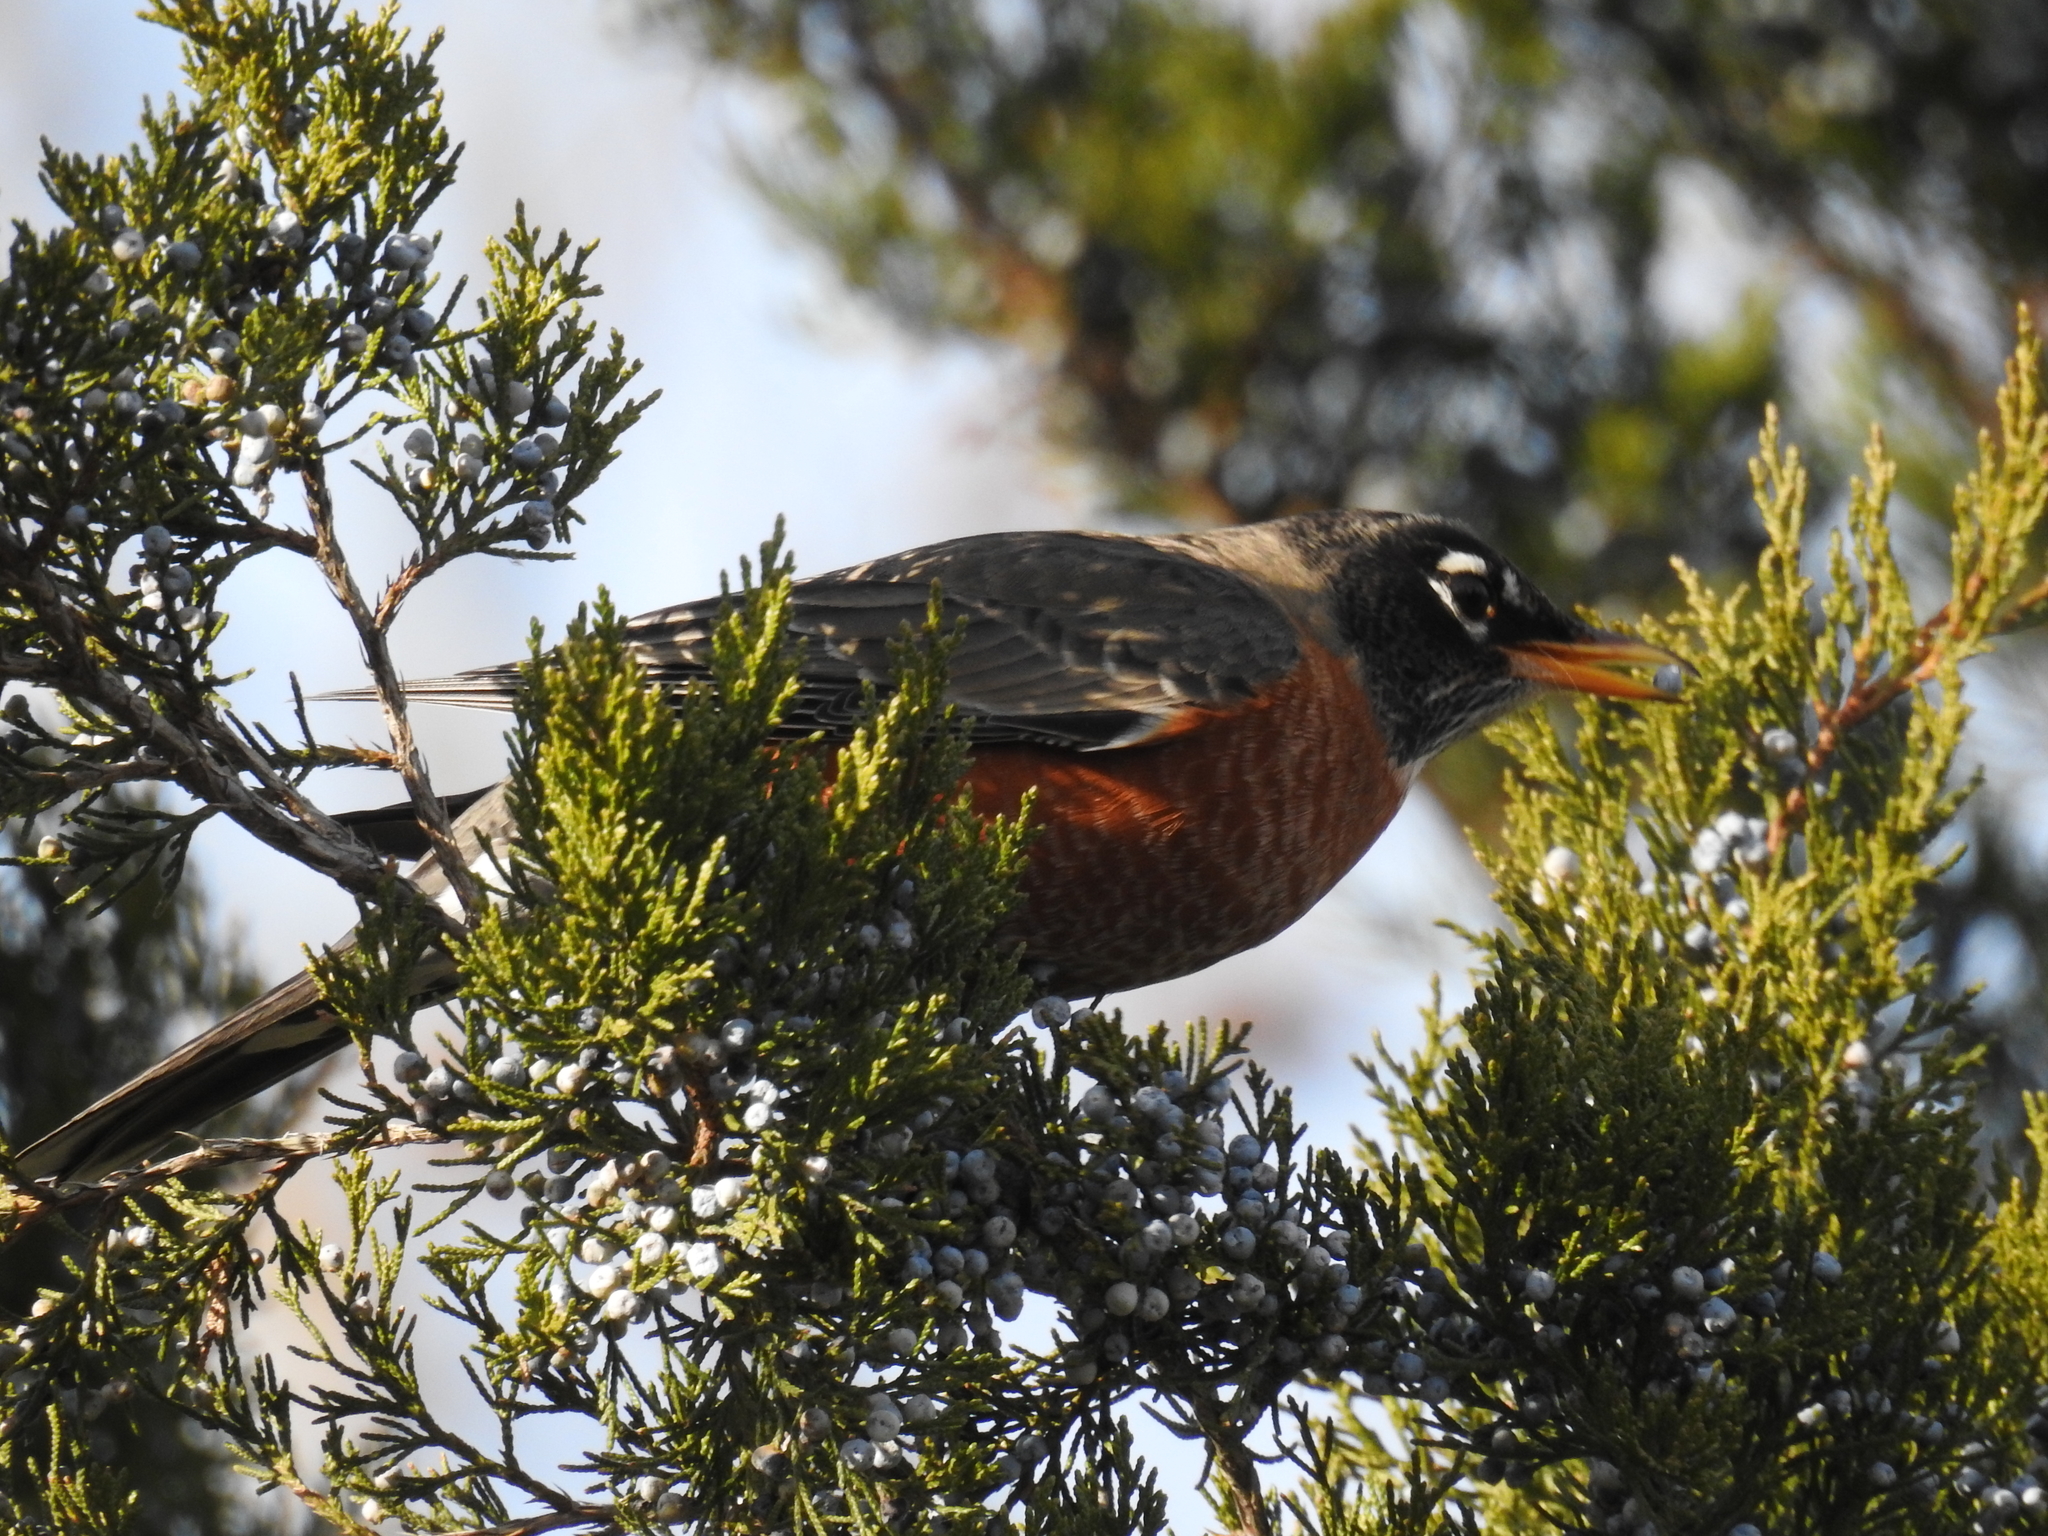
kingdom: Animalia
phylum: Chordata
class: Aves
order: Passeriformes
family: Turdidae
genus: Turdus
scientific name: Turdus migratorius
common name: American robin
